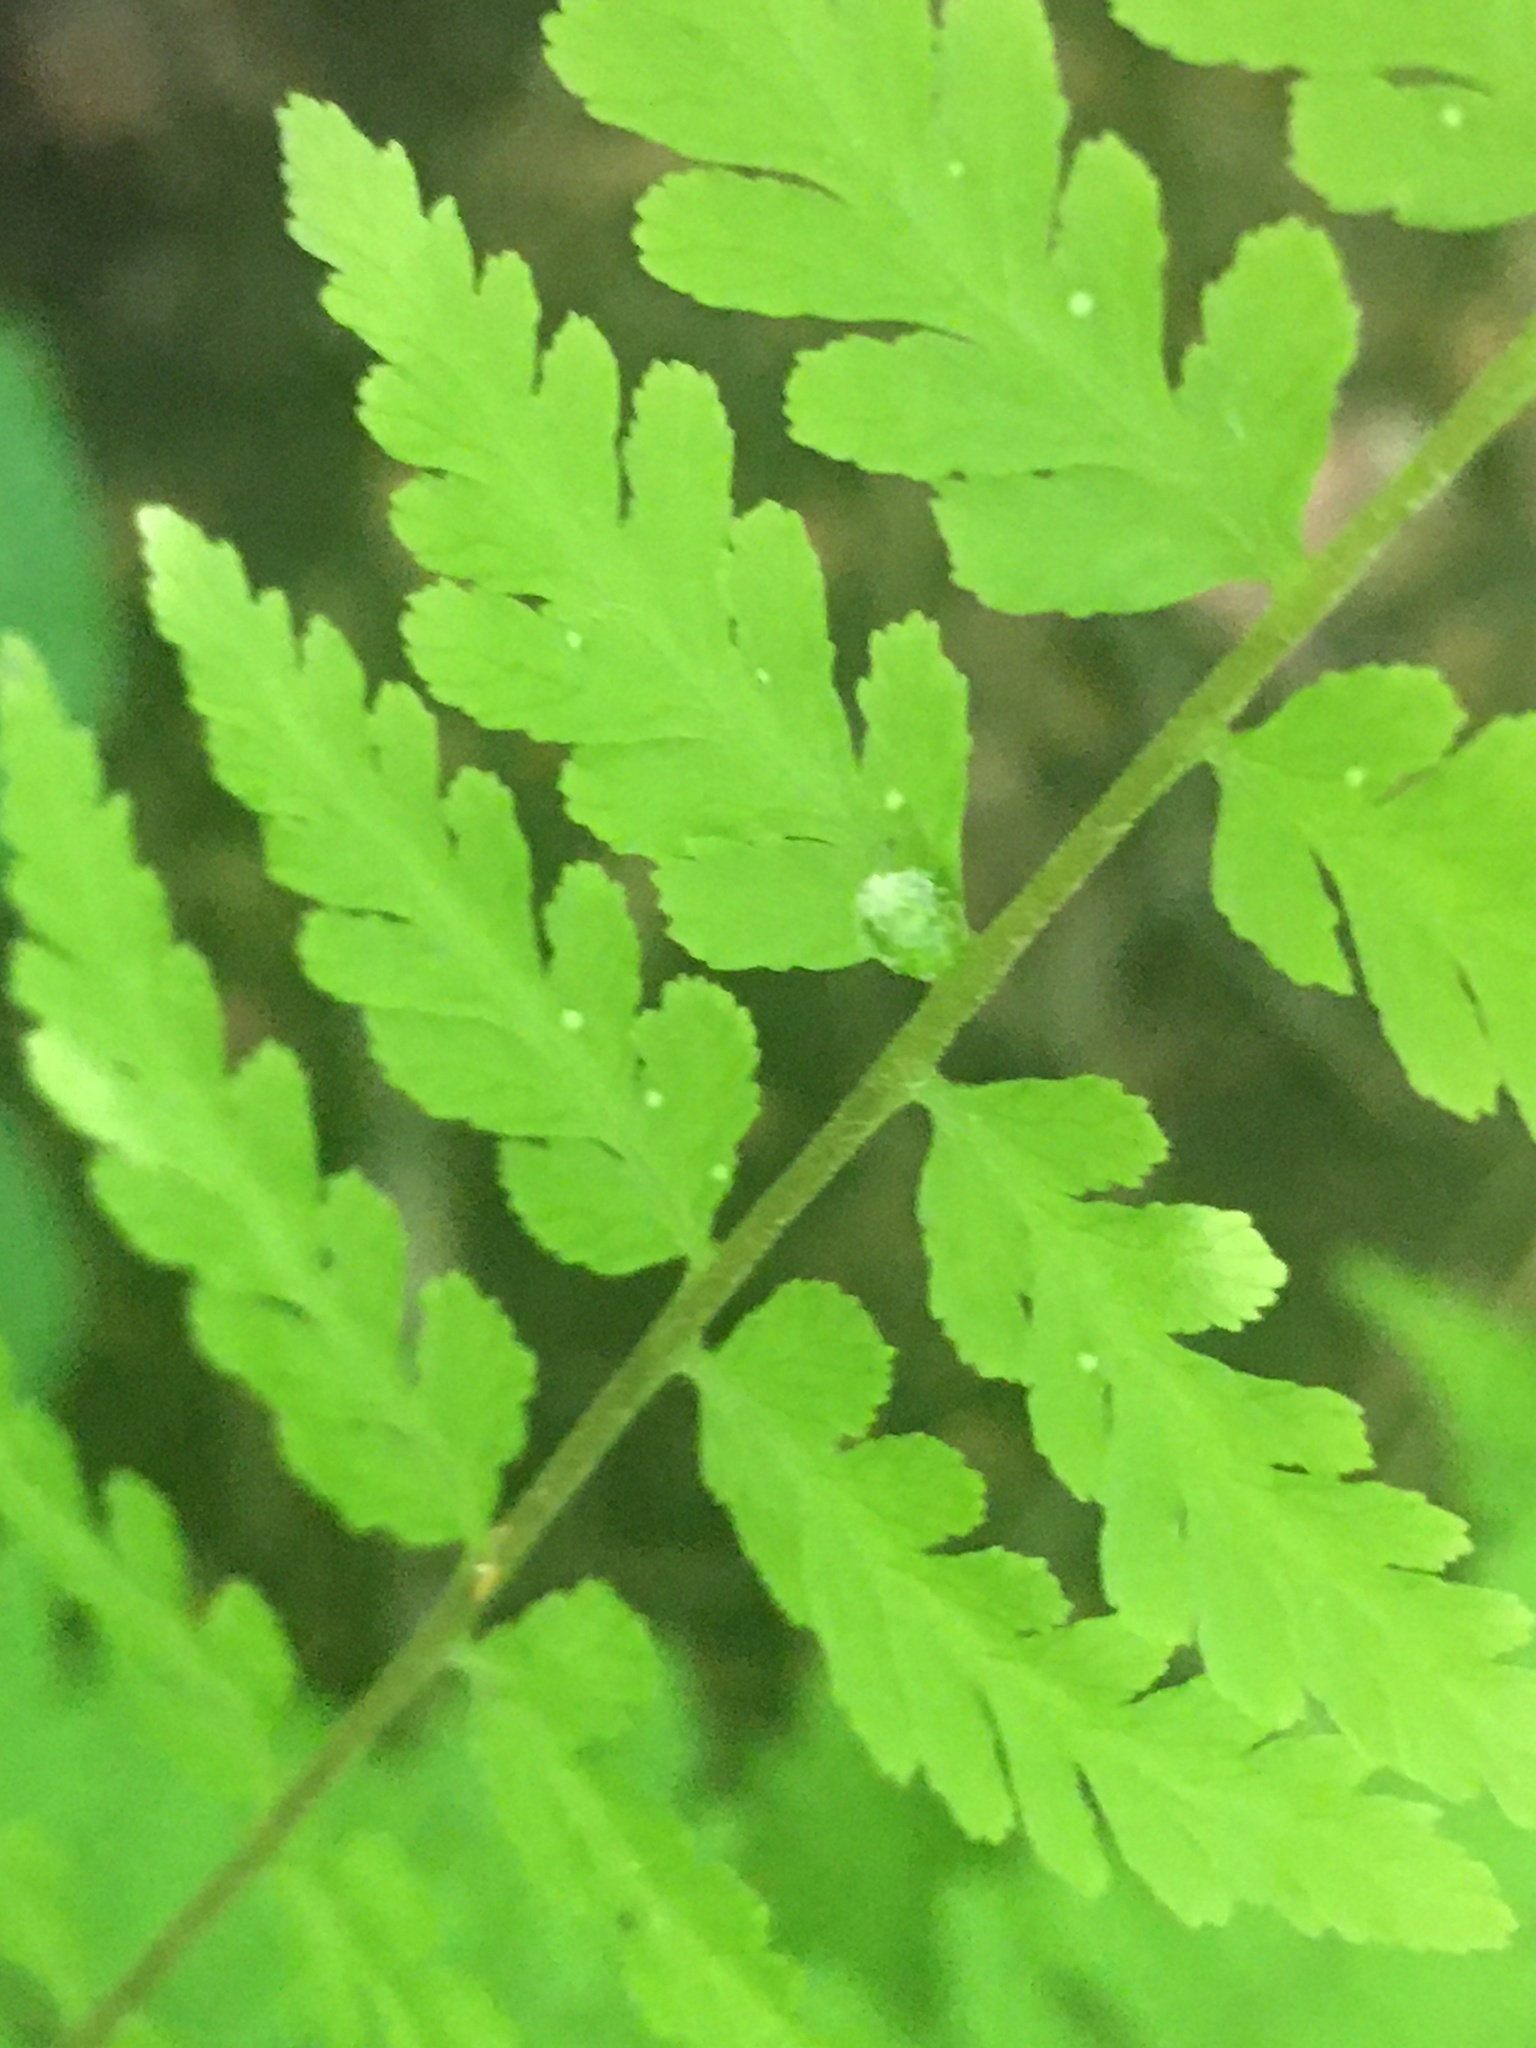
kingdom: Plantae
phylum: Tracheophyta
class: Polypodiopsida
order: Polypodiales
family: Cystopteridaceae
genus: Cystopteris
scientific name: Cystopteris bulbifera
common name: Bulblet bladder fern
